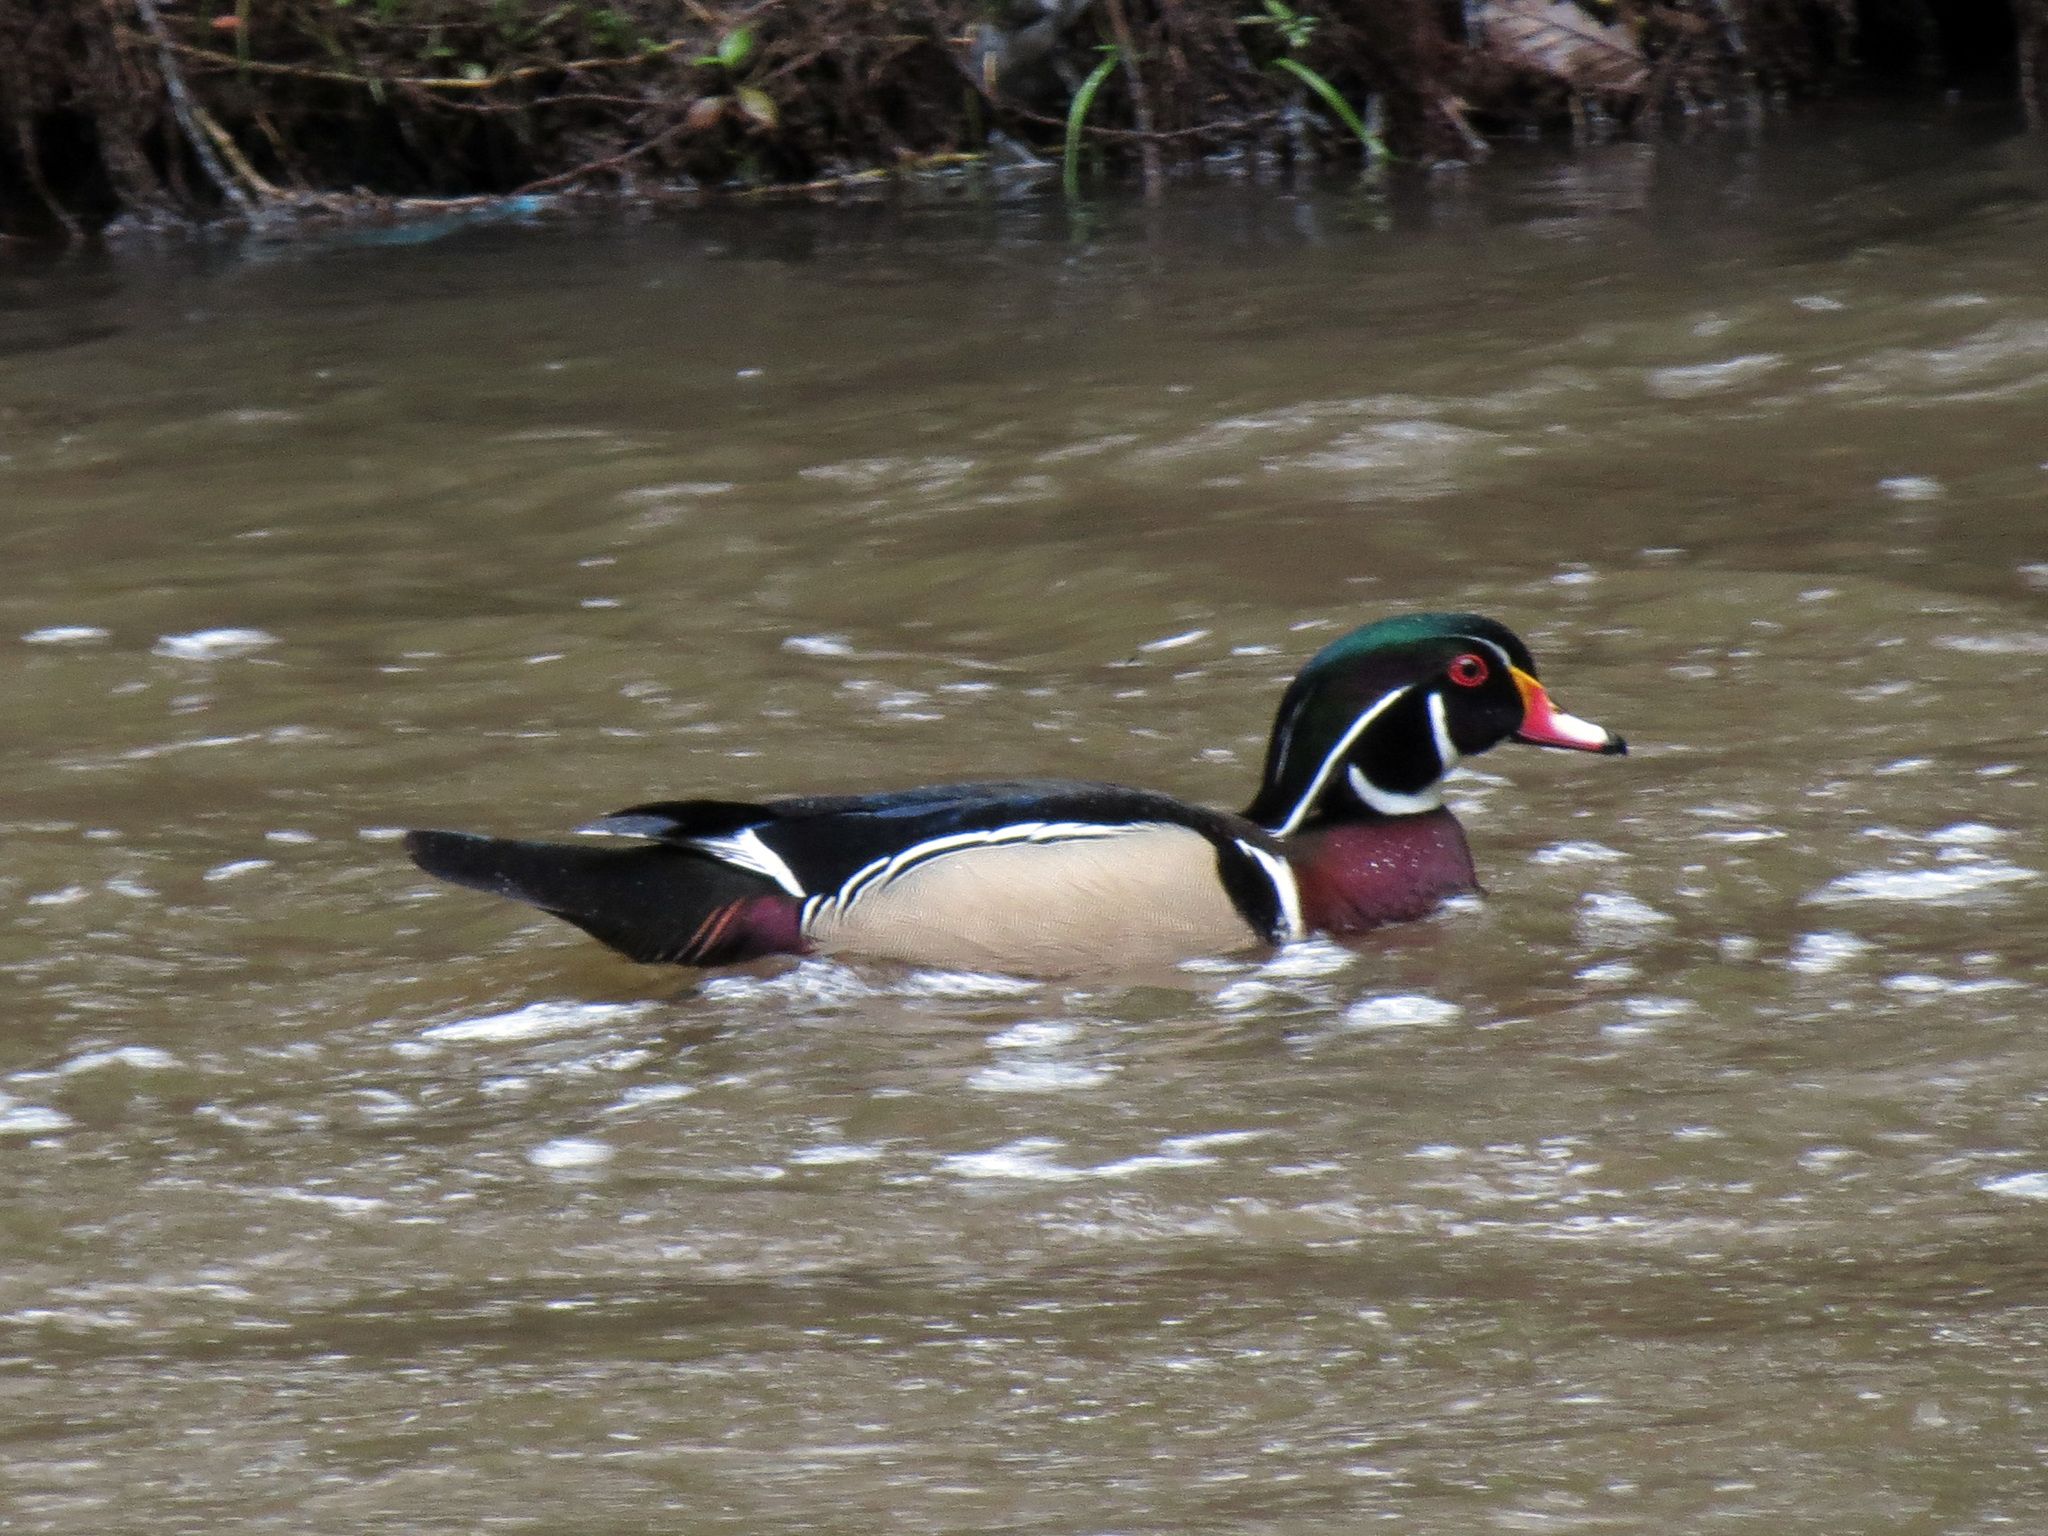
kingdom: Animalia
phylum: Chordata
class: Aves
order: Anseriformes
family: Anatidae
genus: Aix
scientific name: Aix sponsa
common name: Wood duck
